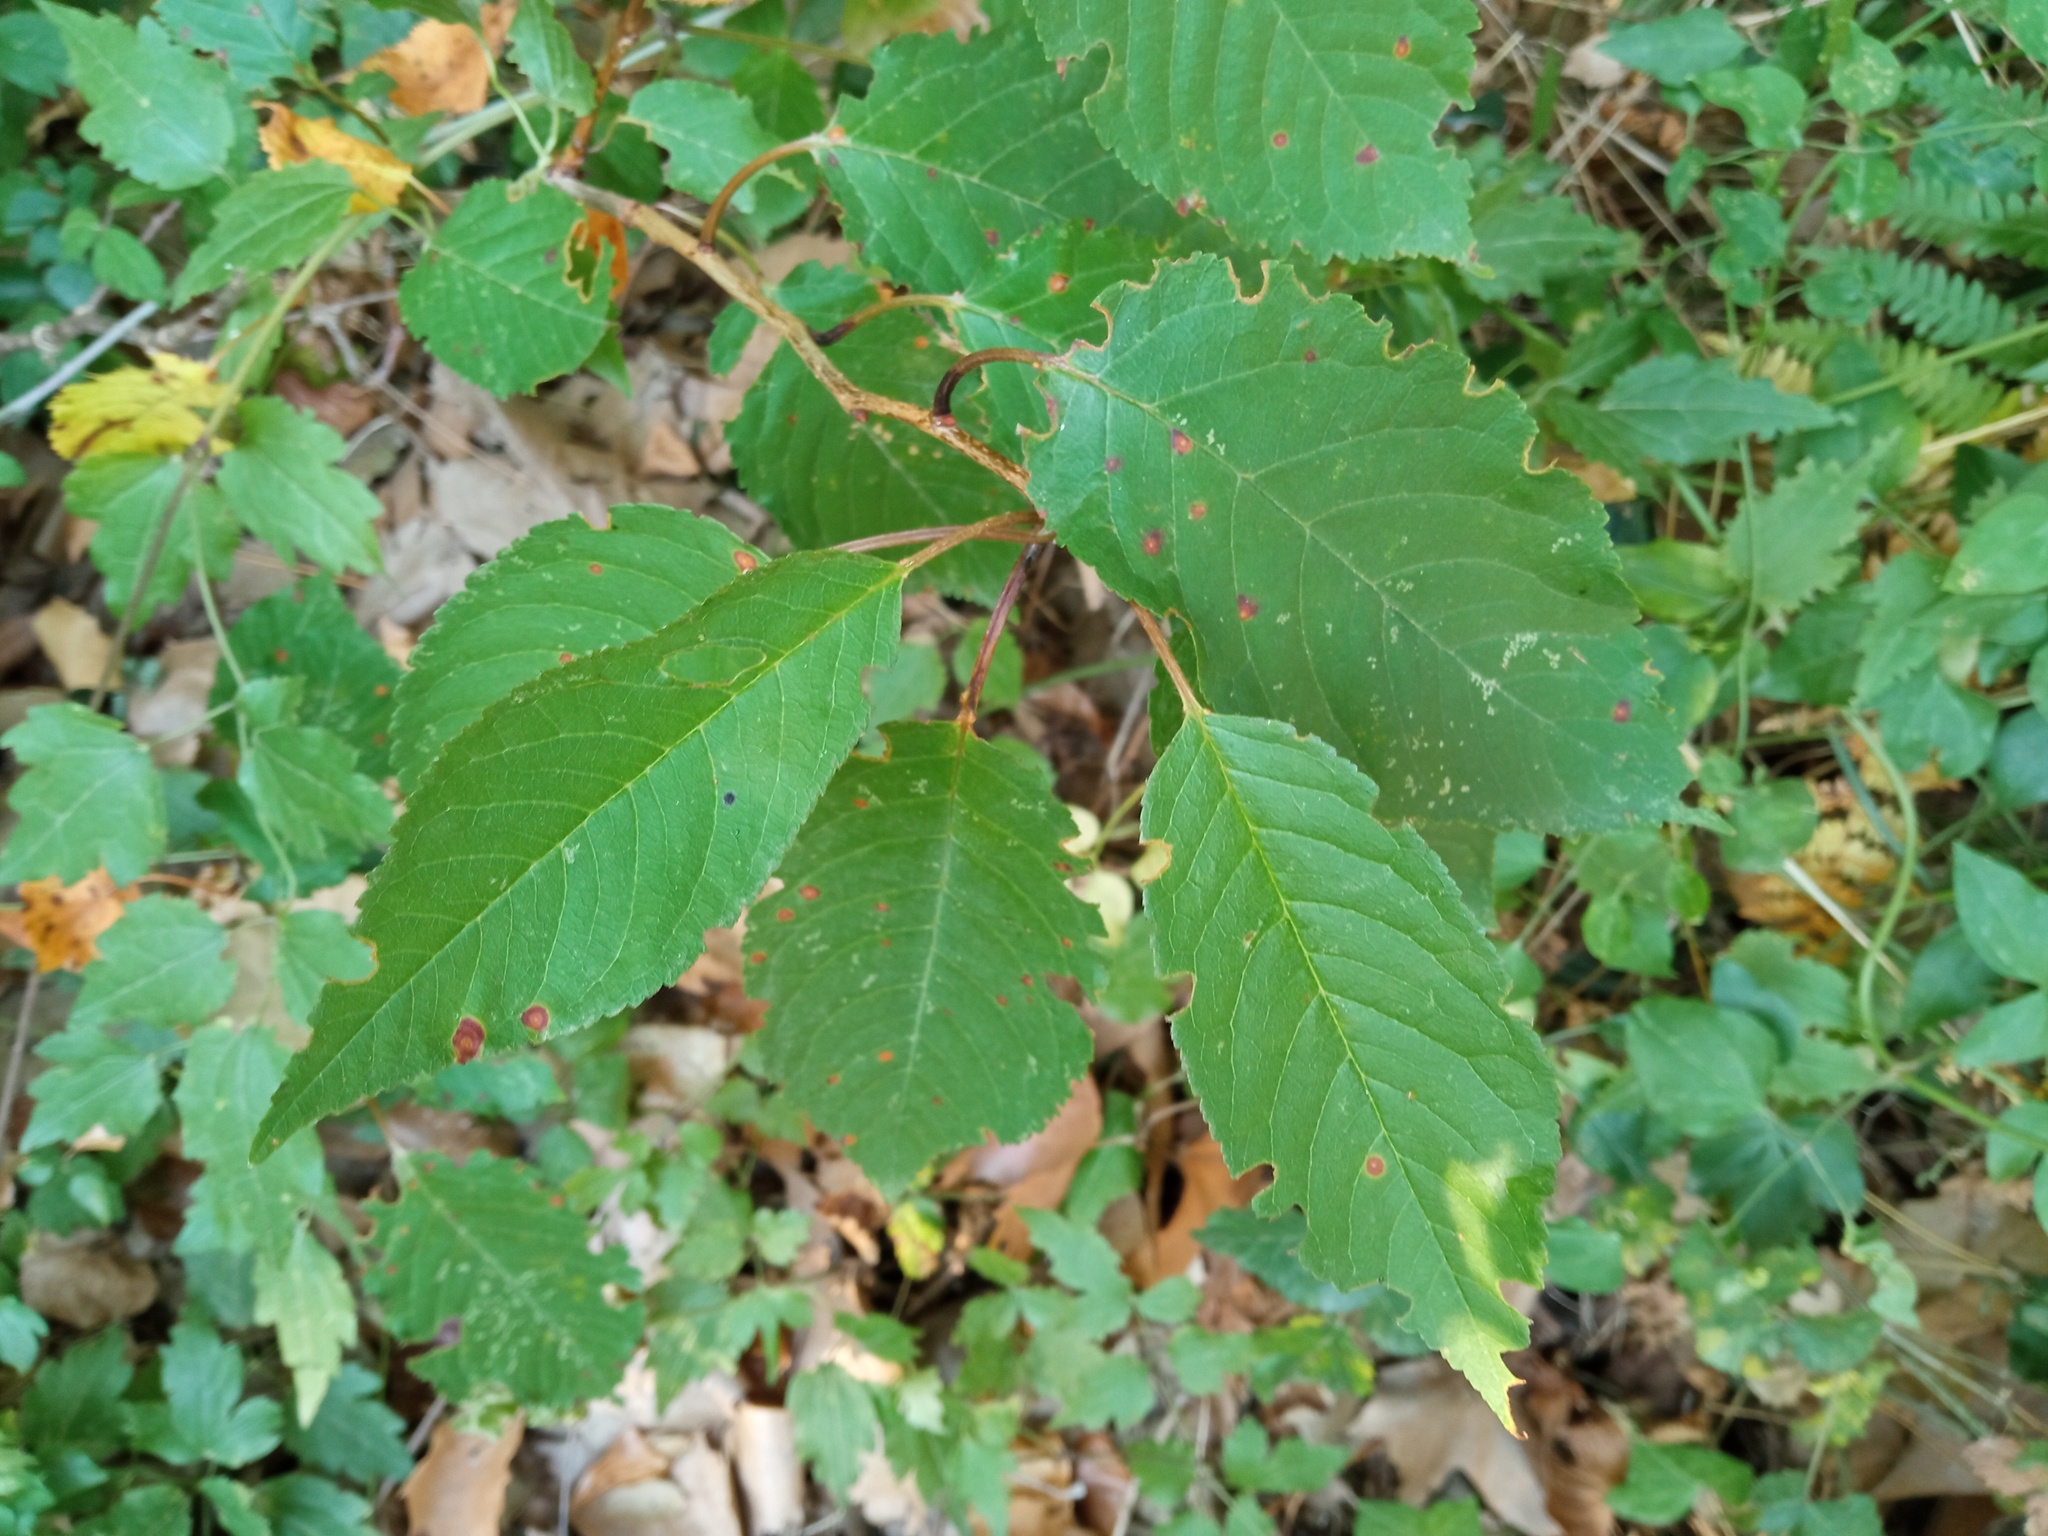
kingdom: Plantae
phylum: Tracheophyta
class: Magnoliopsida
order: Rosales
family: Rosaceae
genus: Prunus
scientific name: Prunus avium
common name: Sweet cherry
